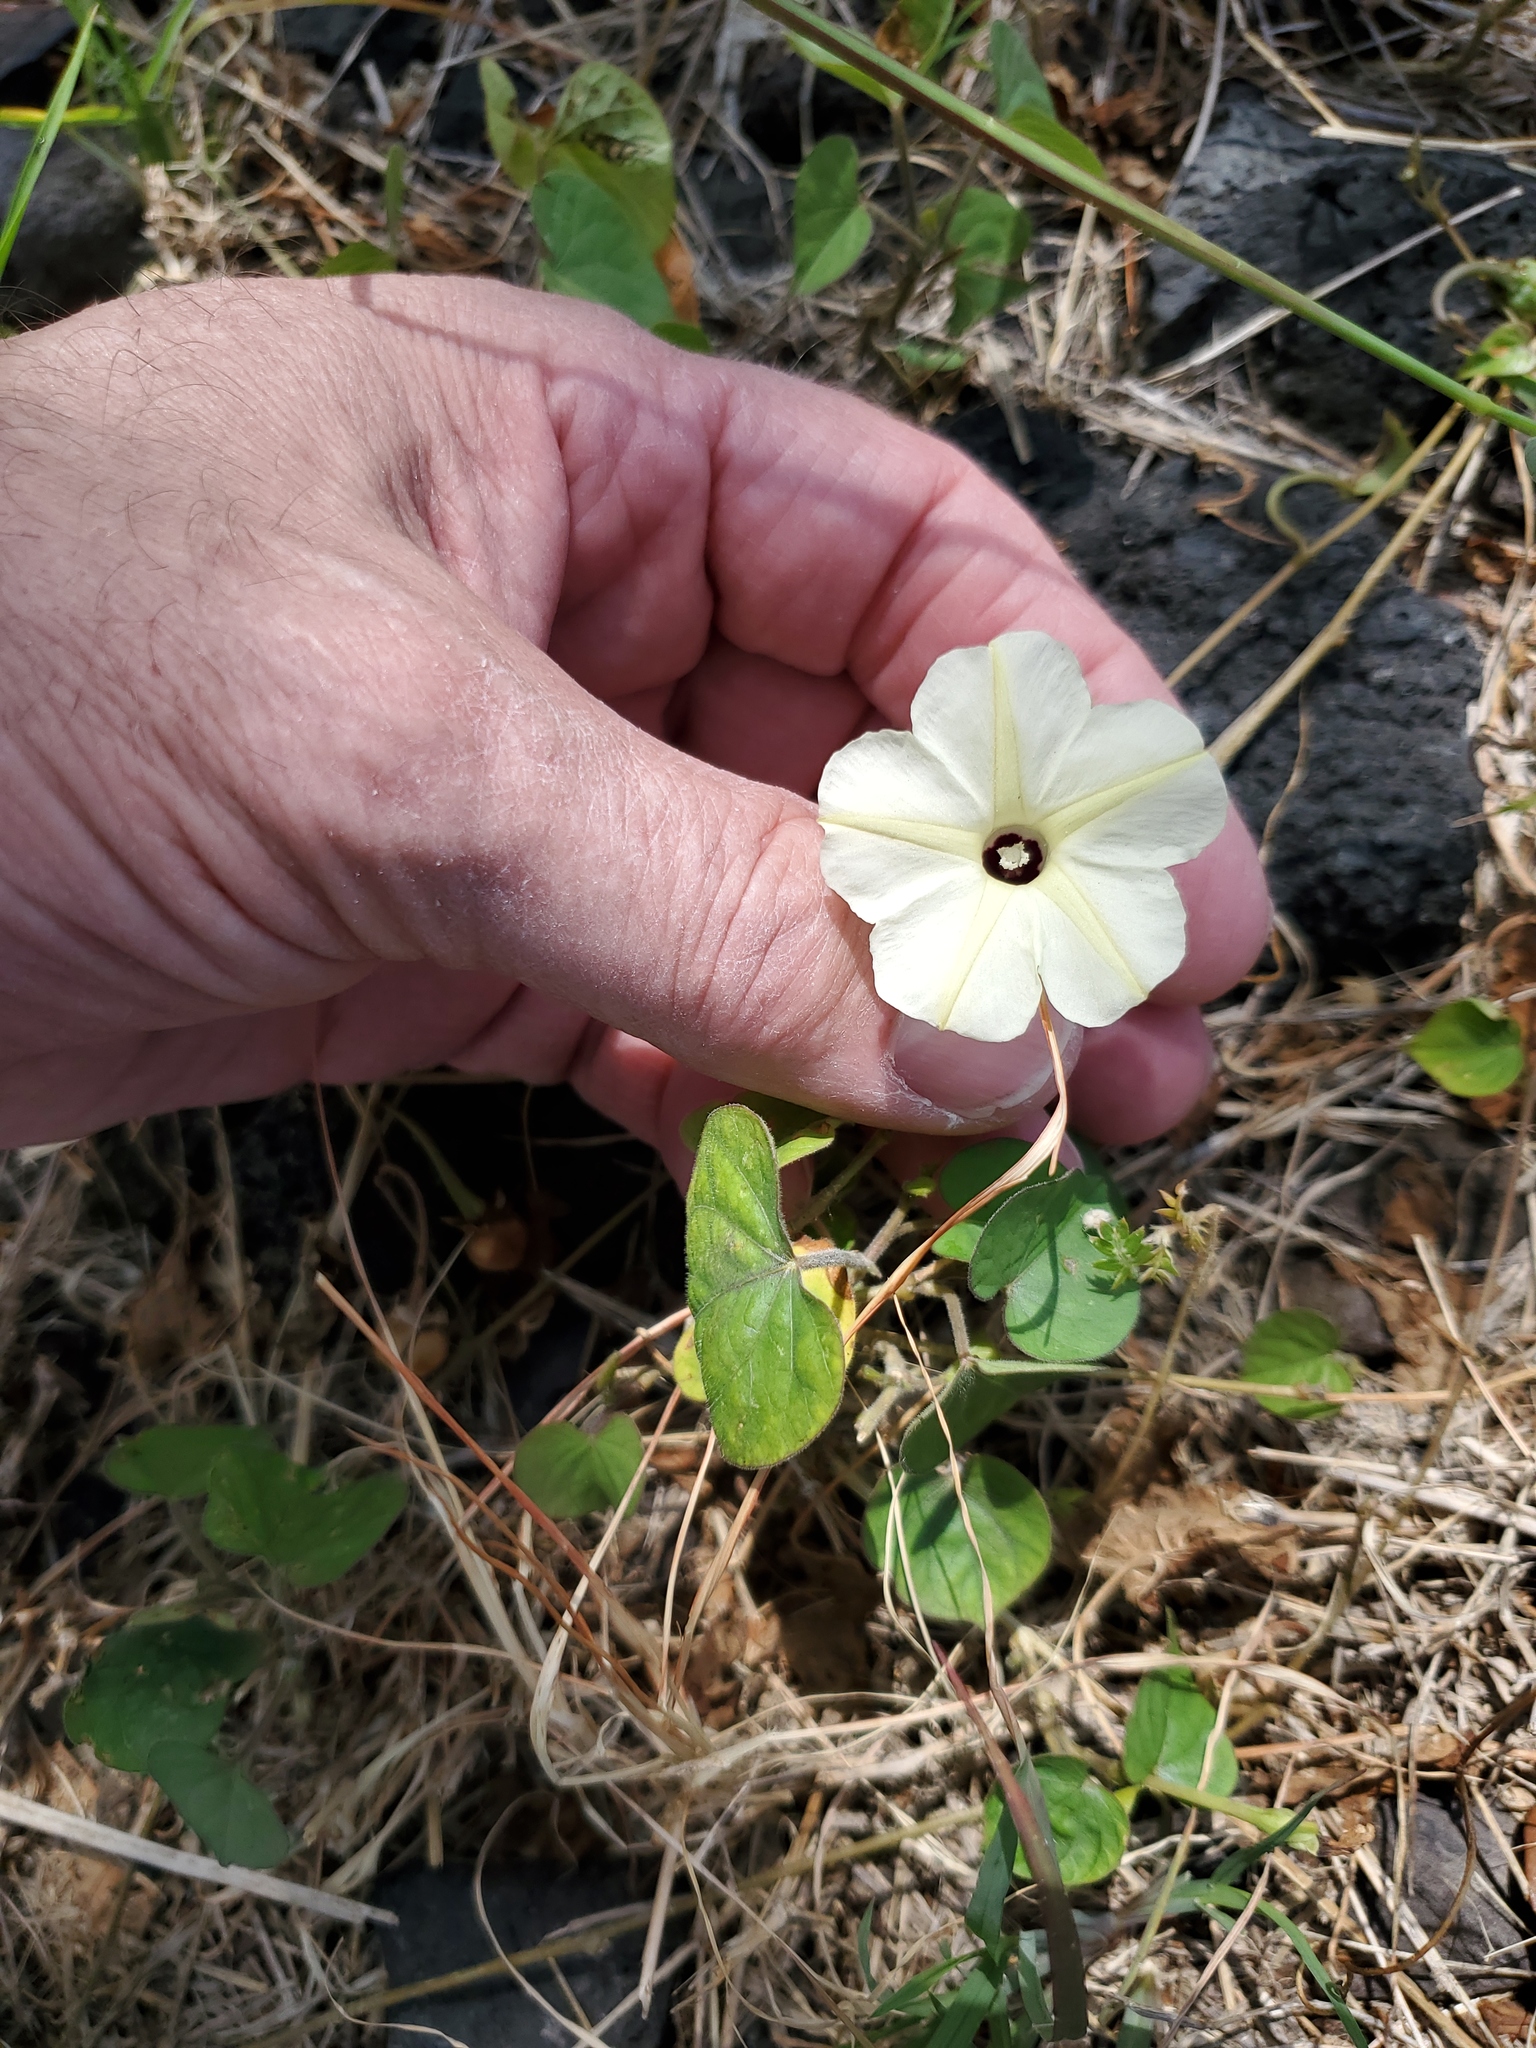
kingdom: Plantae
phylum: Tracheophyta
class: Magnoliopsida
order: Solanales
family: Convolvulaceae
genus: Ipomoea
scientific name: Ipomoea obscura
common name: Obscure morning-glory
